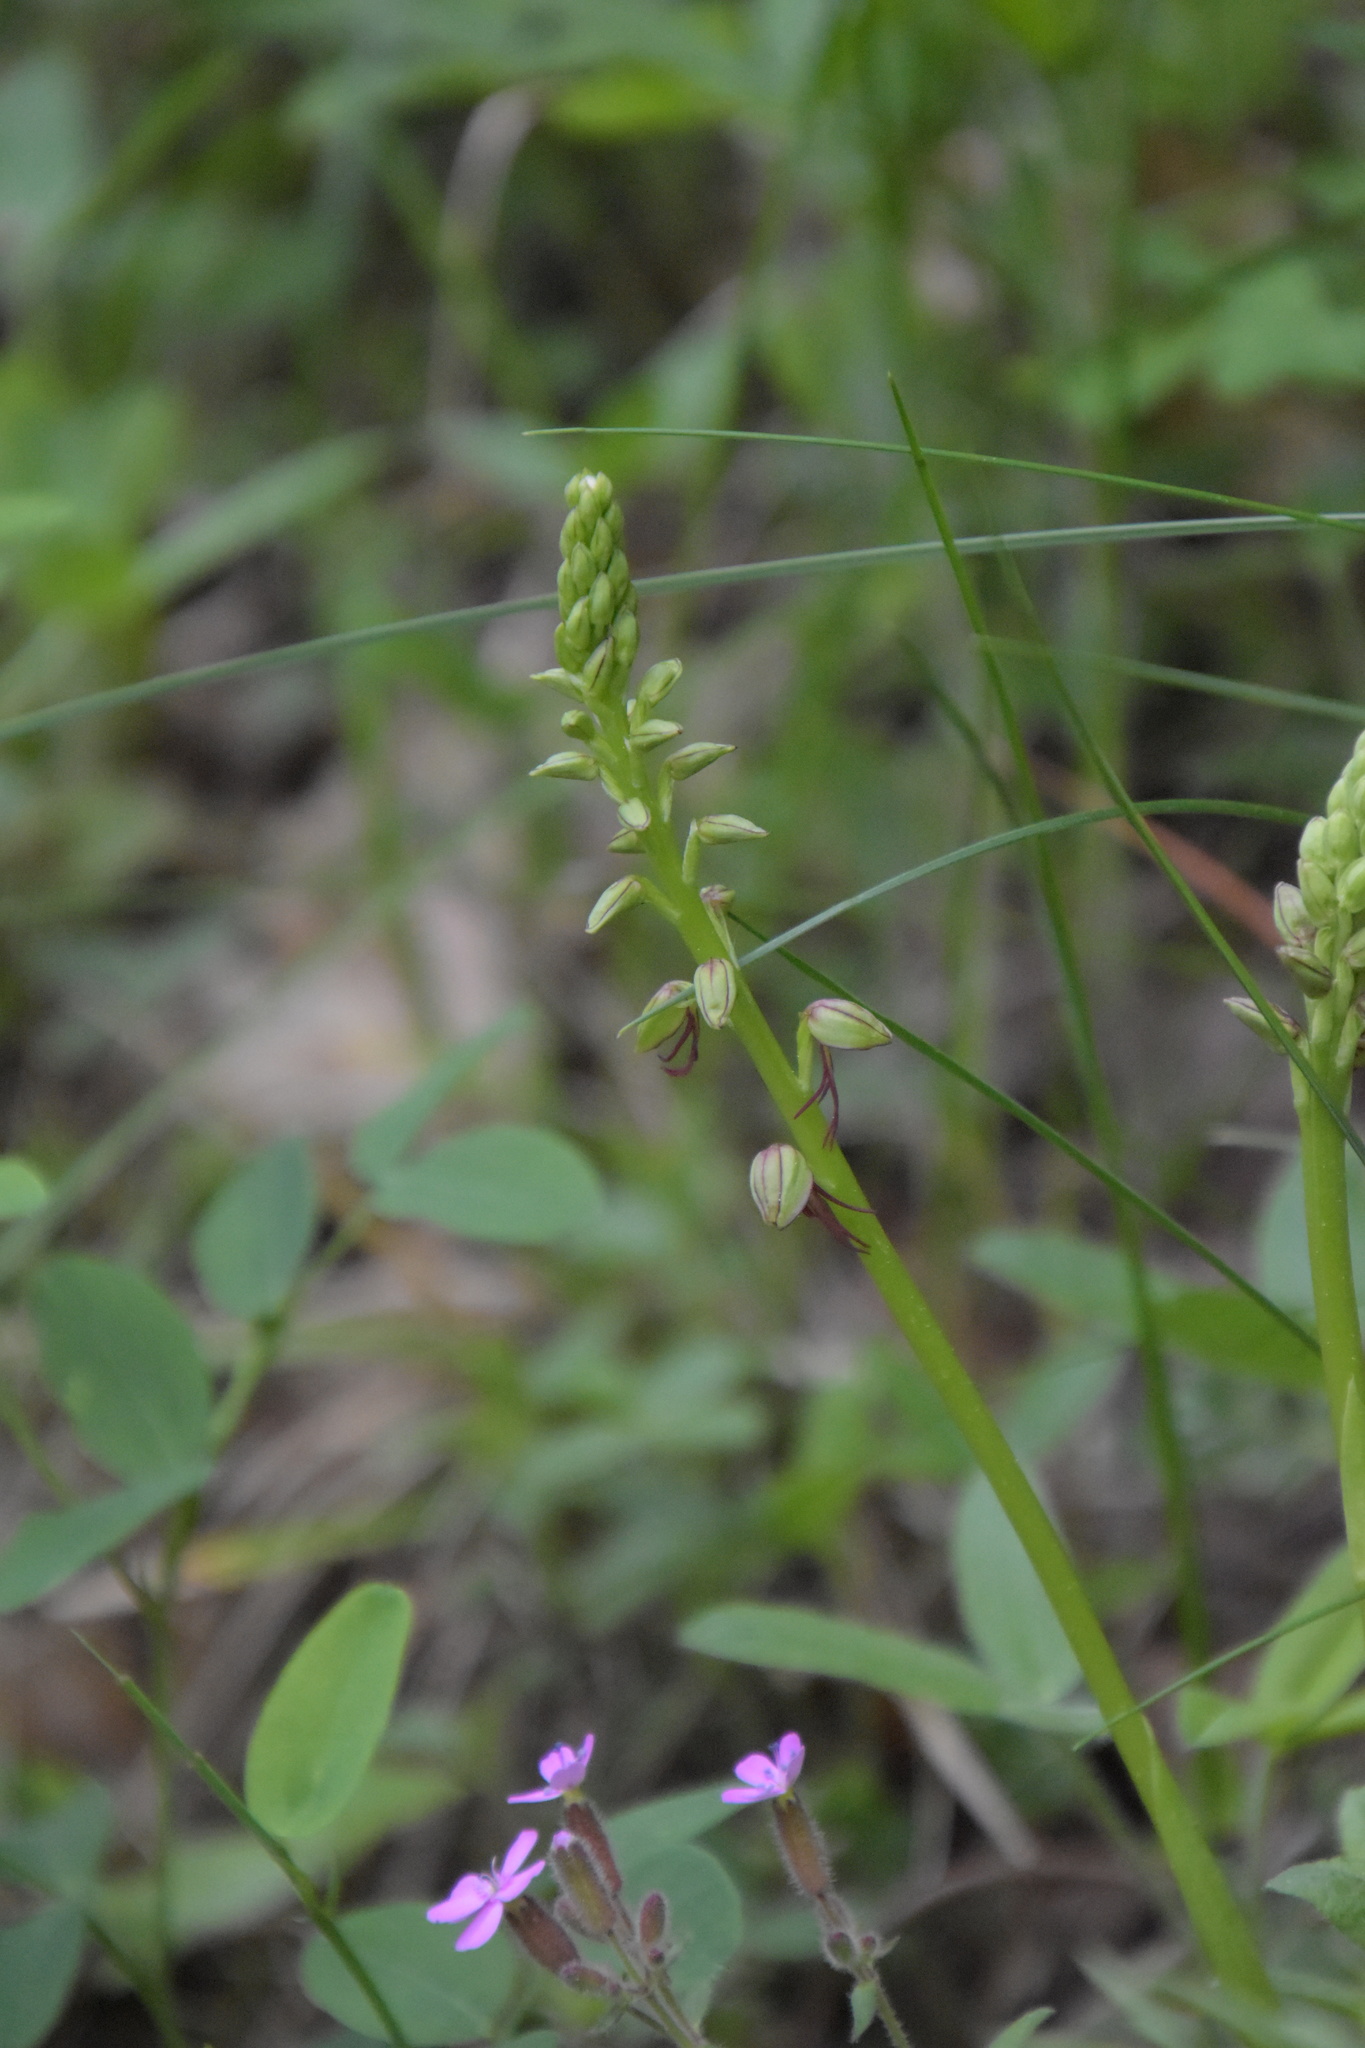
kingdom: Plantae
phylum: Tracheophyta
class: Liliopsida
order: Asparagales
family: Orchidaceae
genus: Orchis
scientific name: Orchis anthropophora
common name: Man orchid
